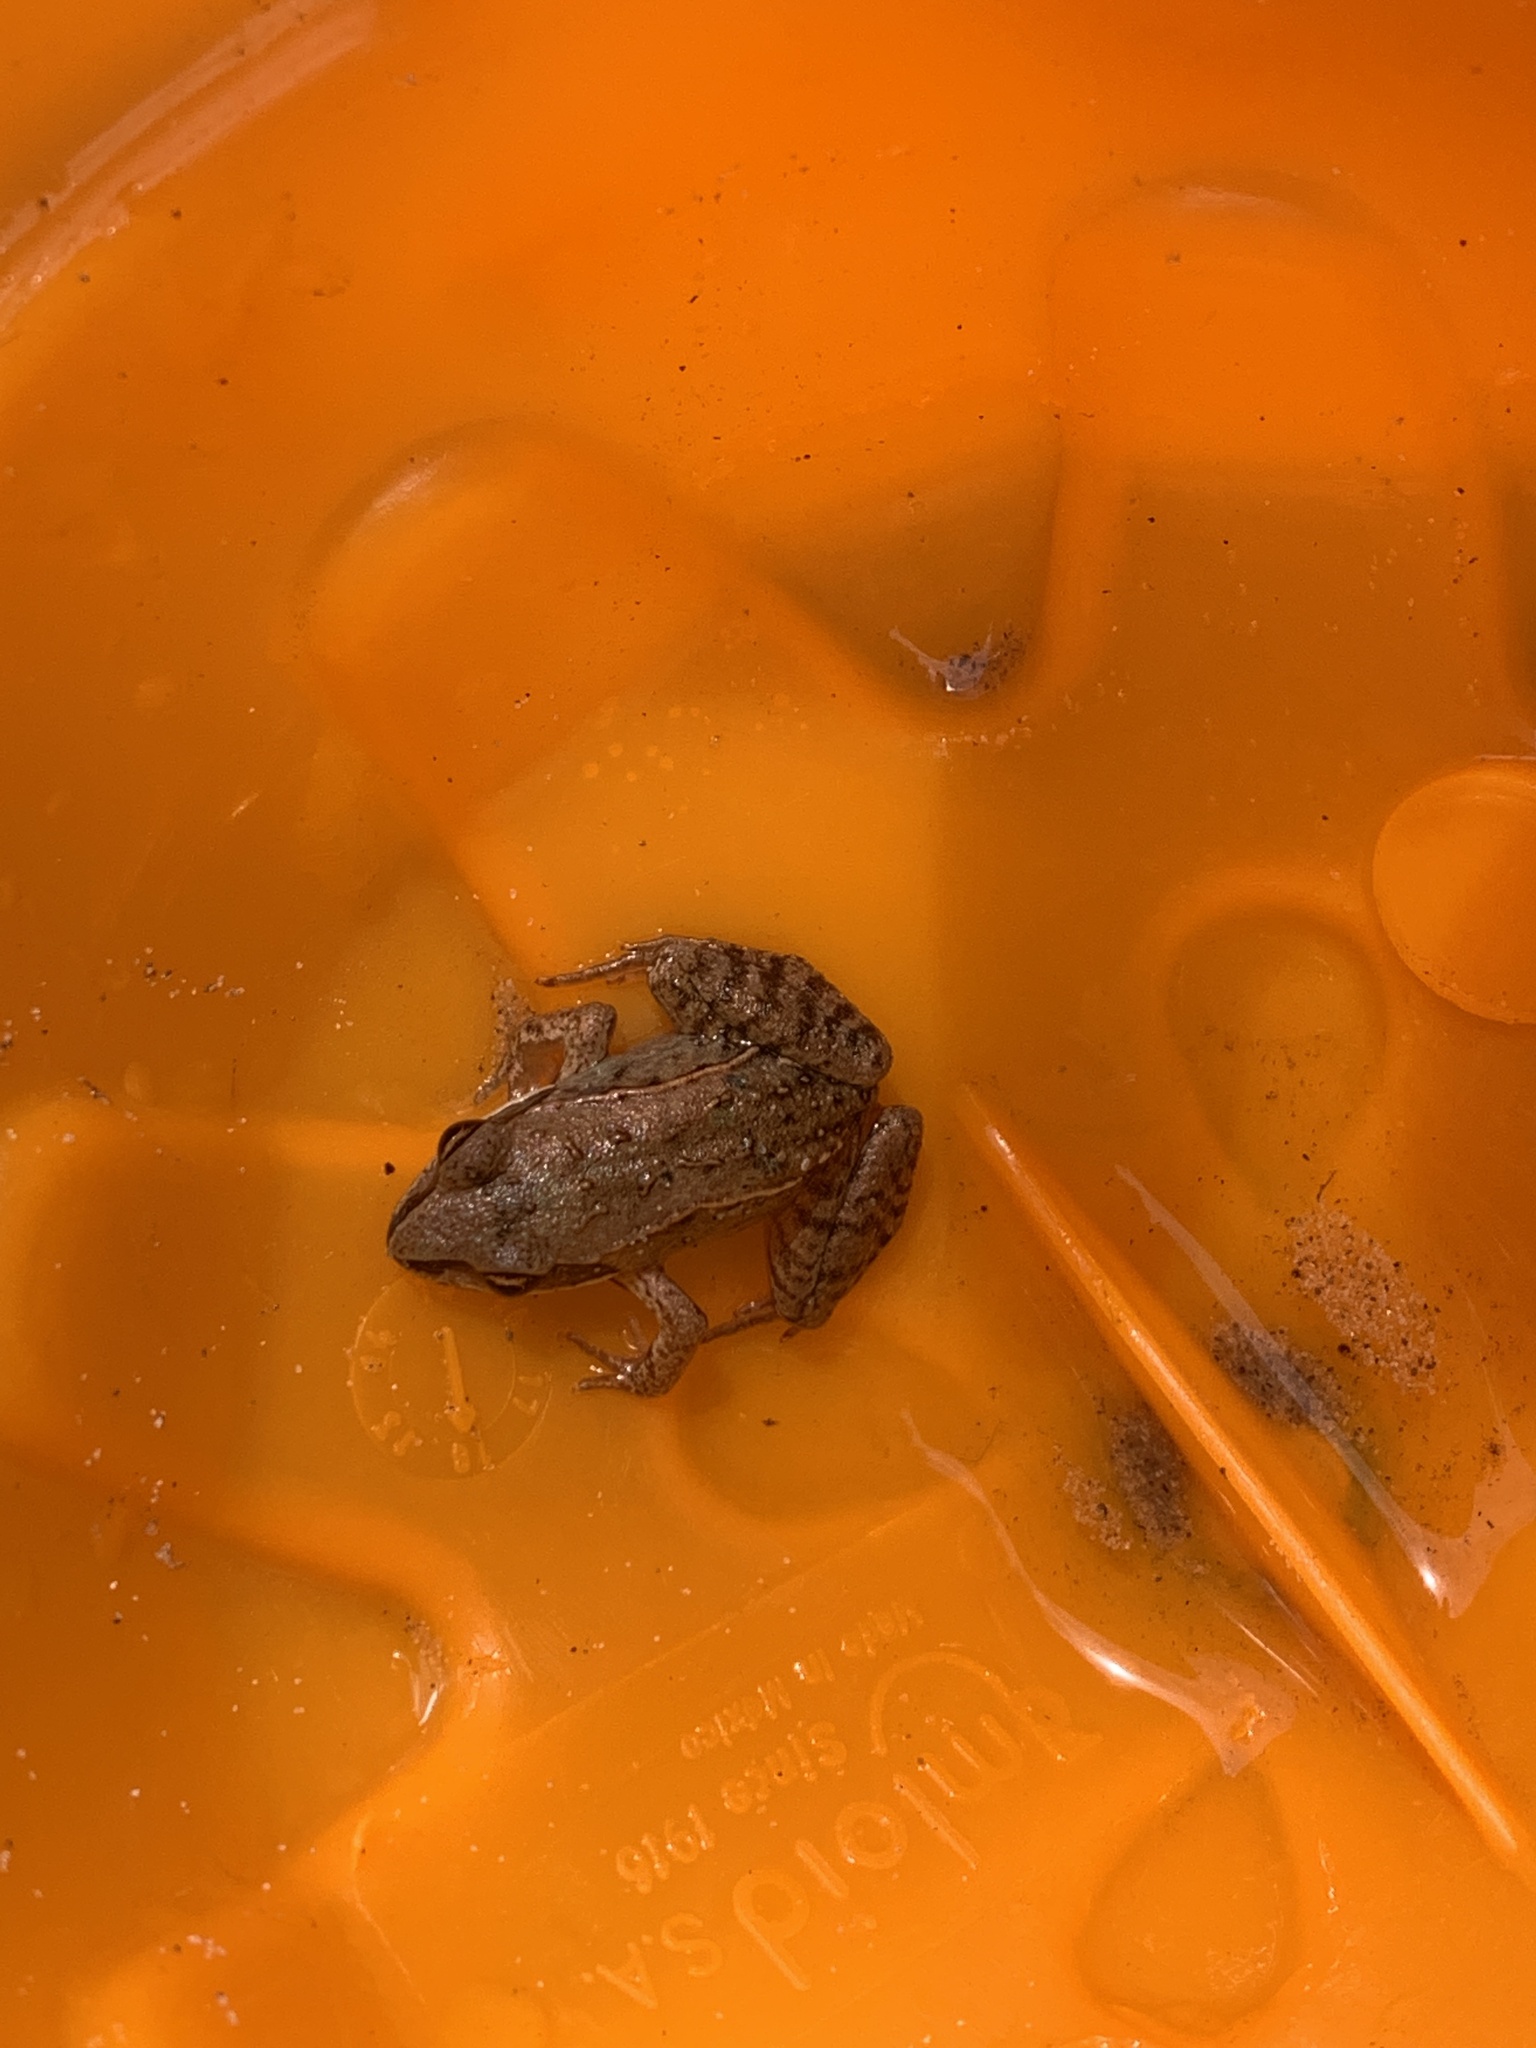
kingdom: Animalia
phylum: Chordata
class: Amphibia
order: Anura
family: Ranidae
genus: Lithobates
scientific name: Lithobates sylvaticus
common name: Wood frog
